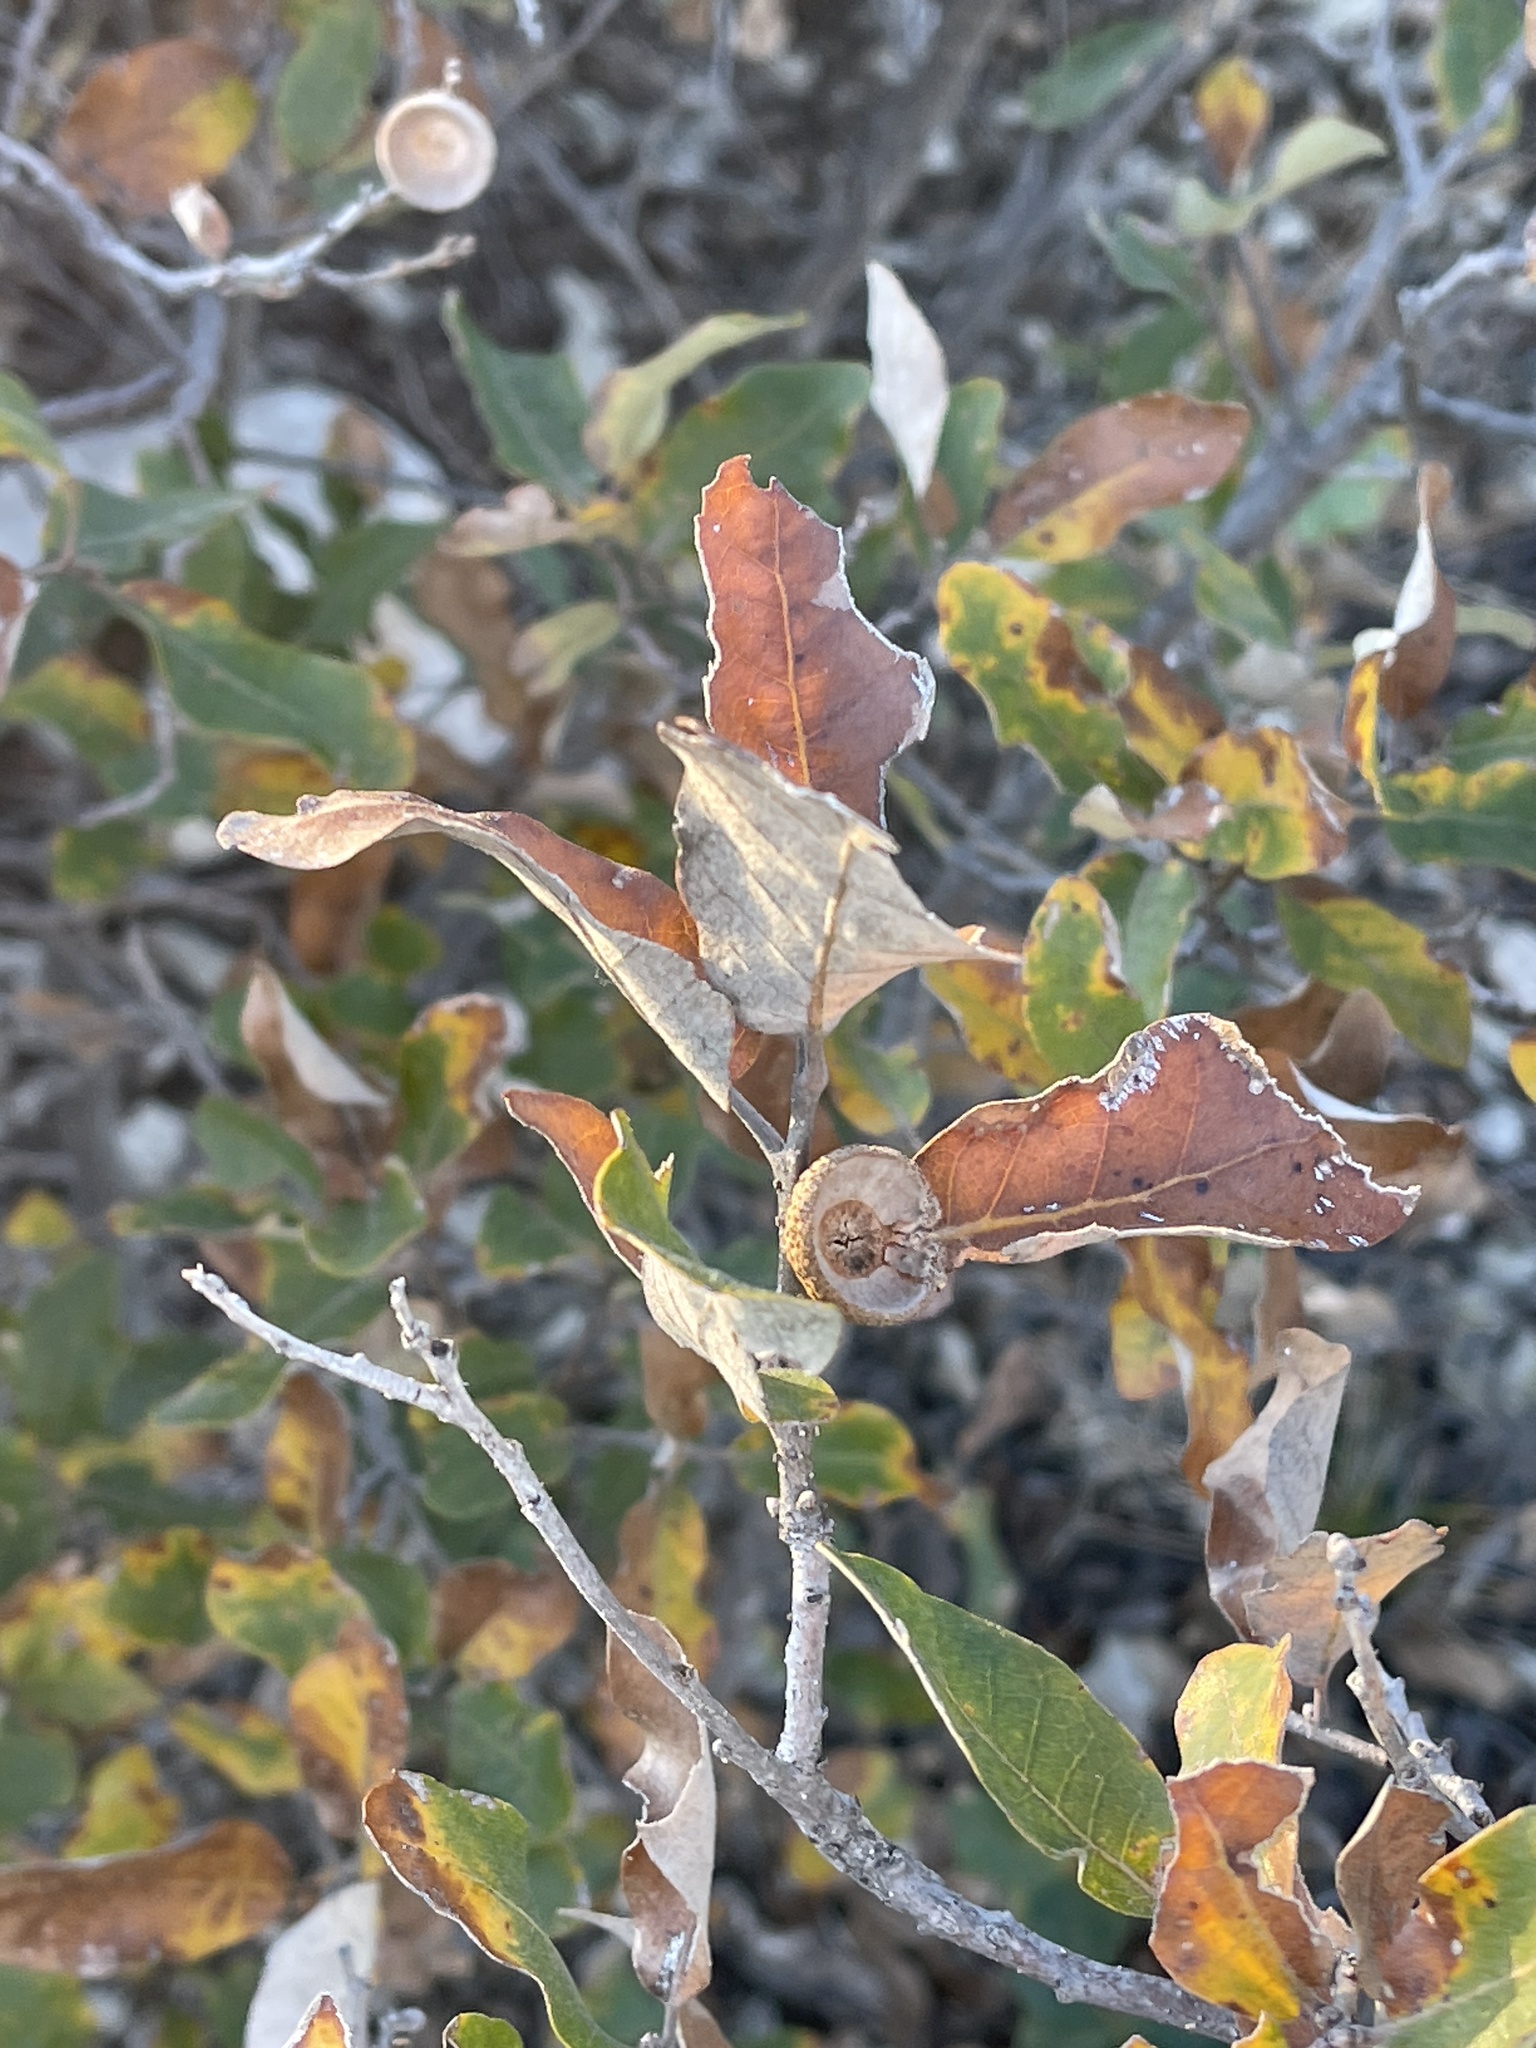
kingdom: Plantae
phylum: Tracheophyta
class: Magnoliopsida
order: Fagales
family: Fagaceae
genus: Quercus
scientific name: Quercus havardii
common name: Shinnery oak
